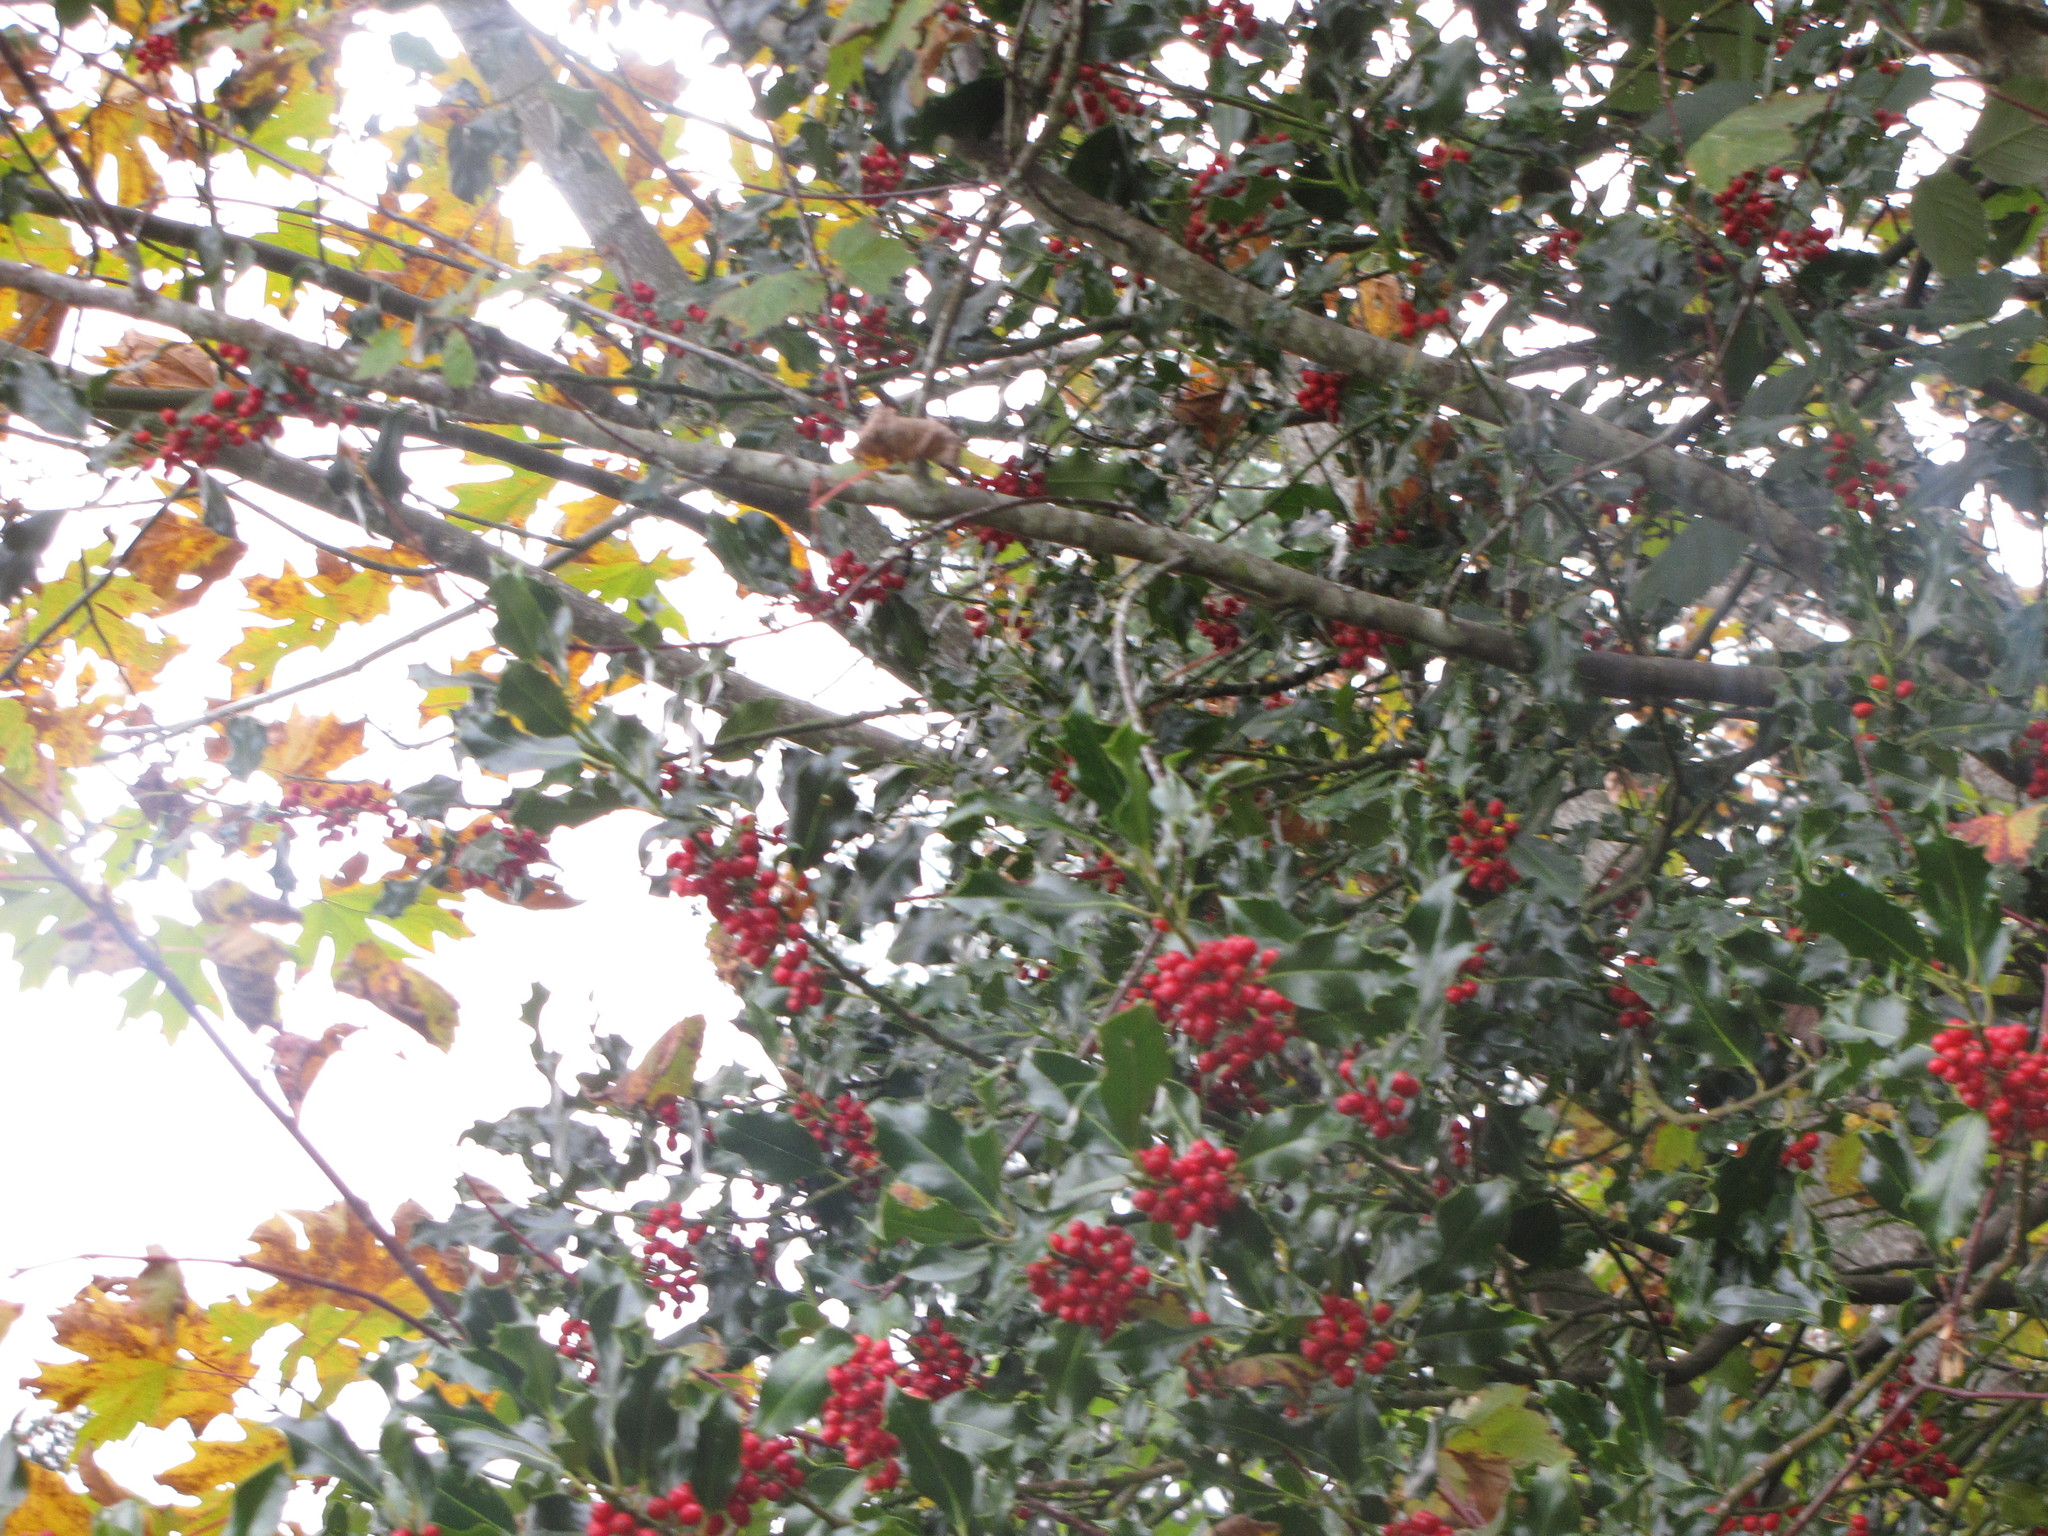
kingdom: Plantae
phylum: Tracheophyta
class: Magnoliopsida
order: Aquifoliales
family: Aquifoliaceae
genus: Ilex
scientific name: Ilex aquifolium
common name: English holly
